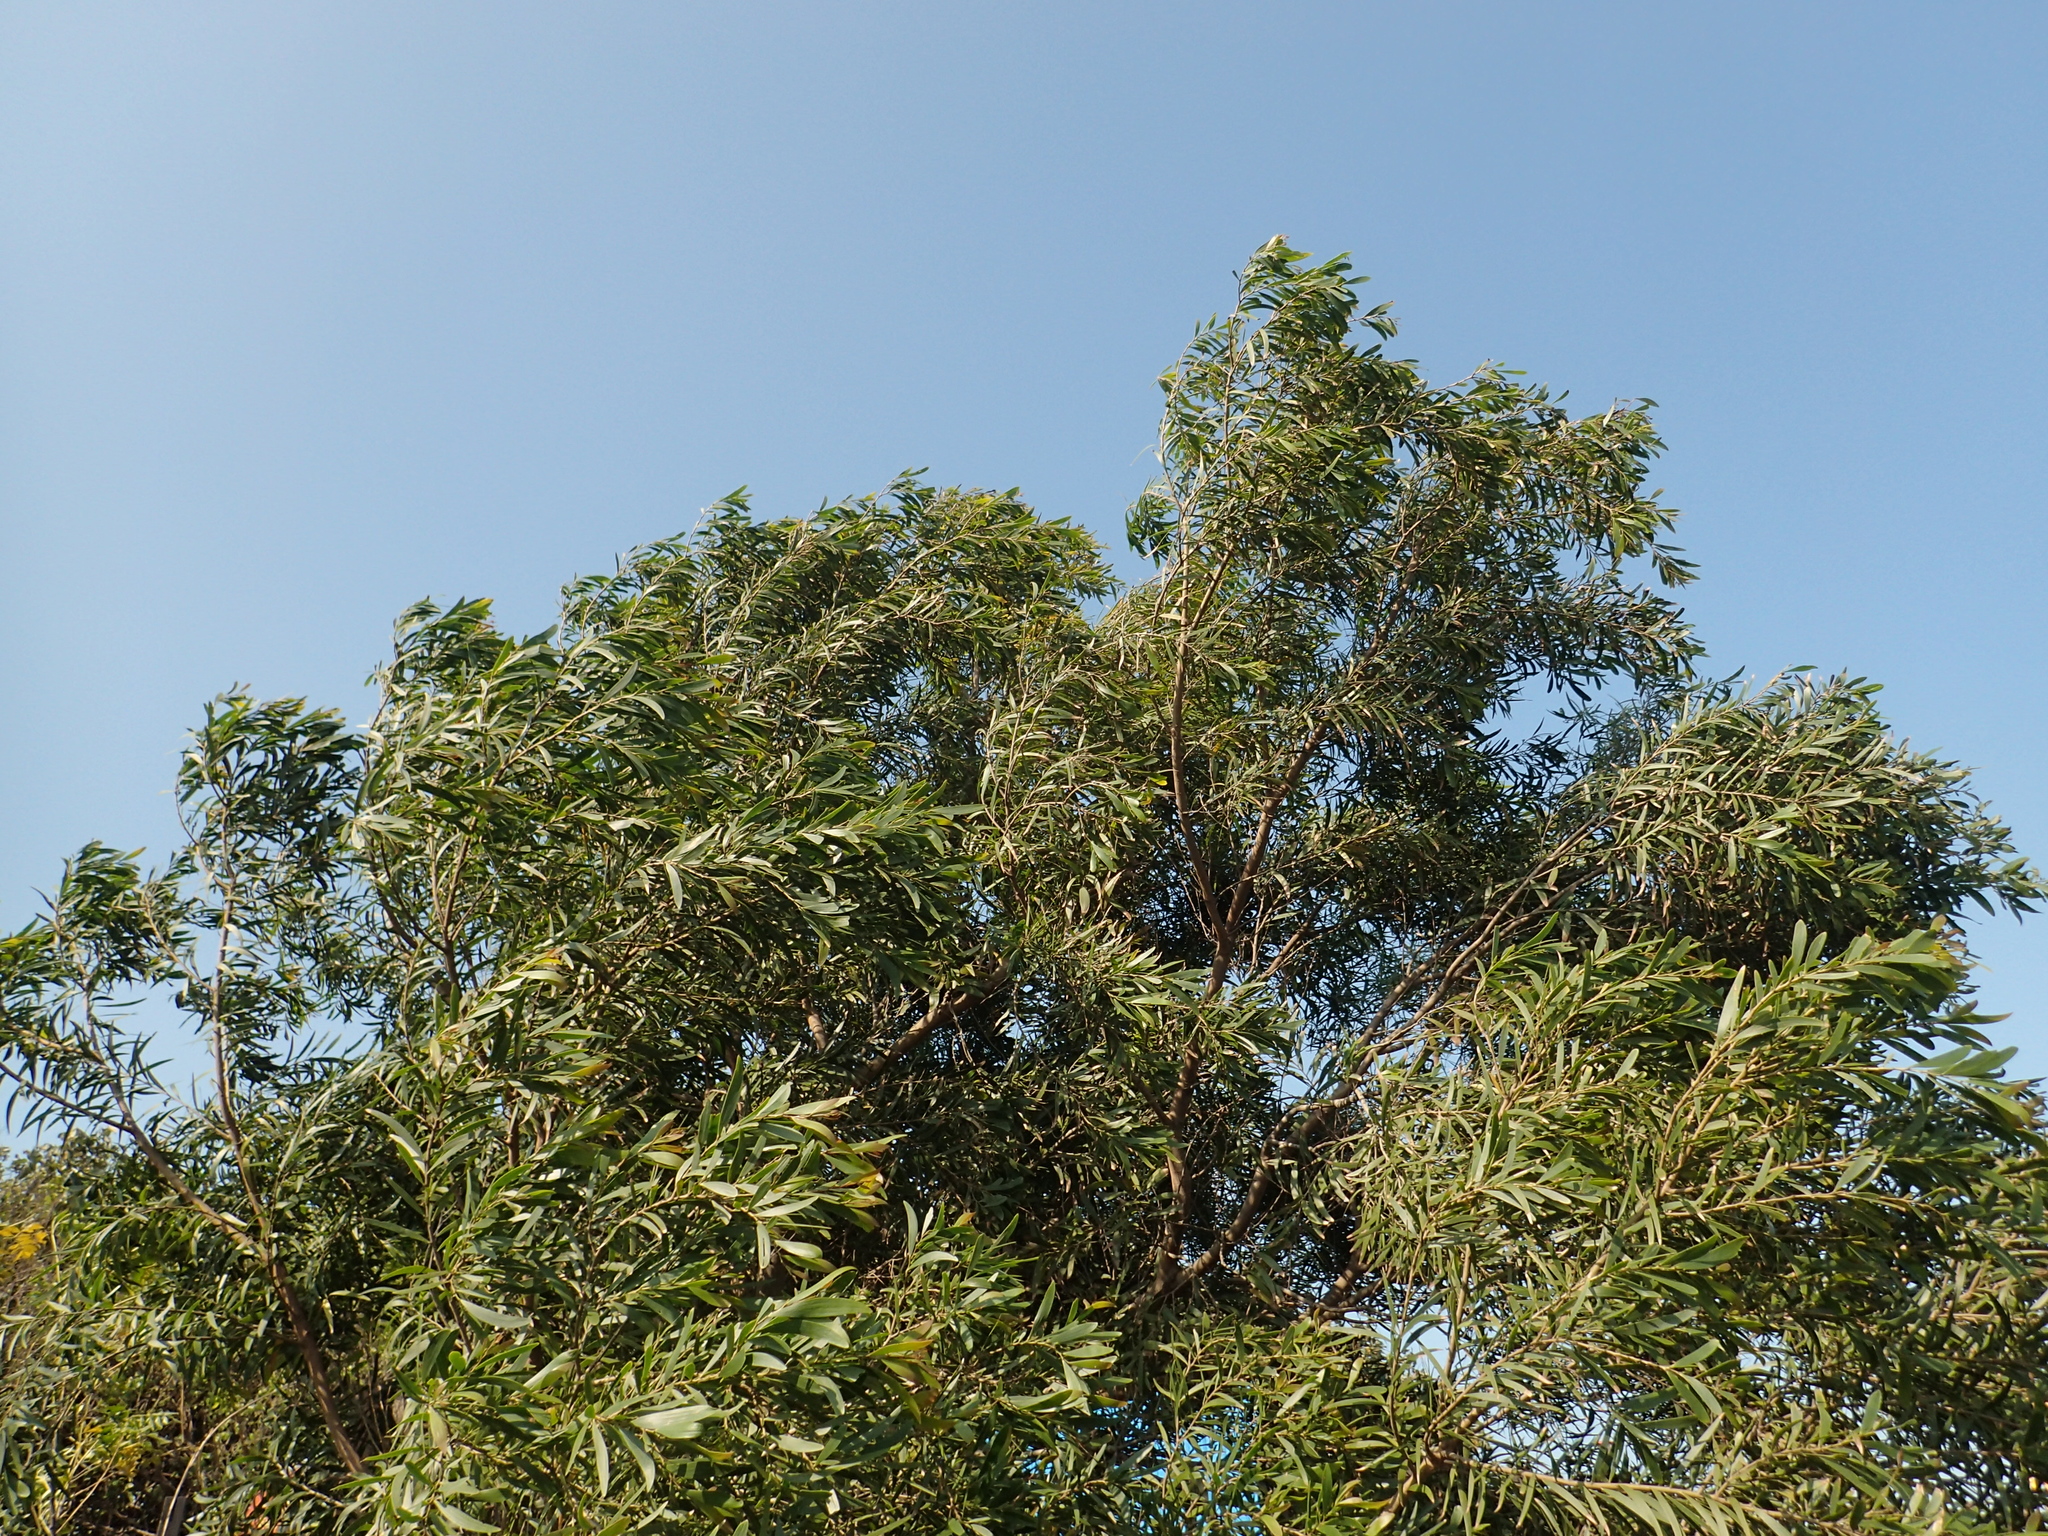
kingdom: Plantae
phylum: Tracheophyta
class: Magnoliopsida
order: Fabales
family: Fabaceae
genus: Acacia
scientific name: Acacia confusa
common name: Formosan koa
